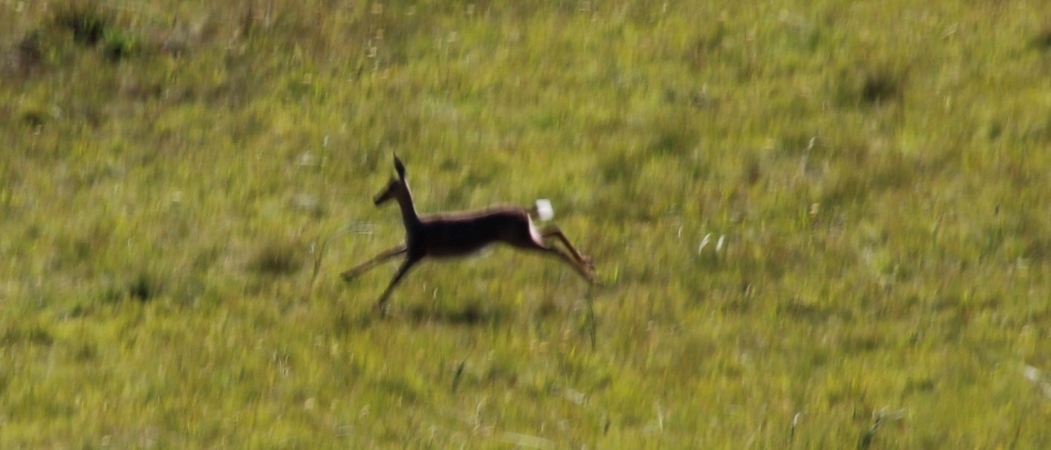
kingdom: Animalia
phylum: Chordata
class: Mammalia
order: Artiodactyla
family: Bovidae
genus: Pelea
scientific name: Pelea capreolus
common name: Common rhebok
